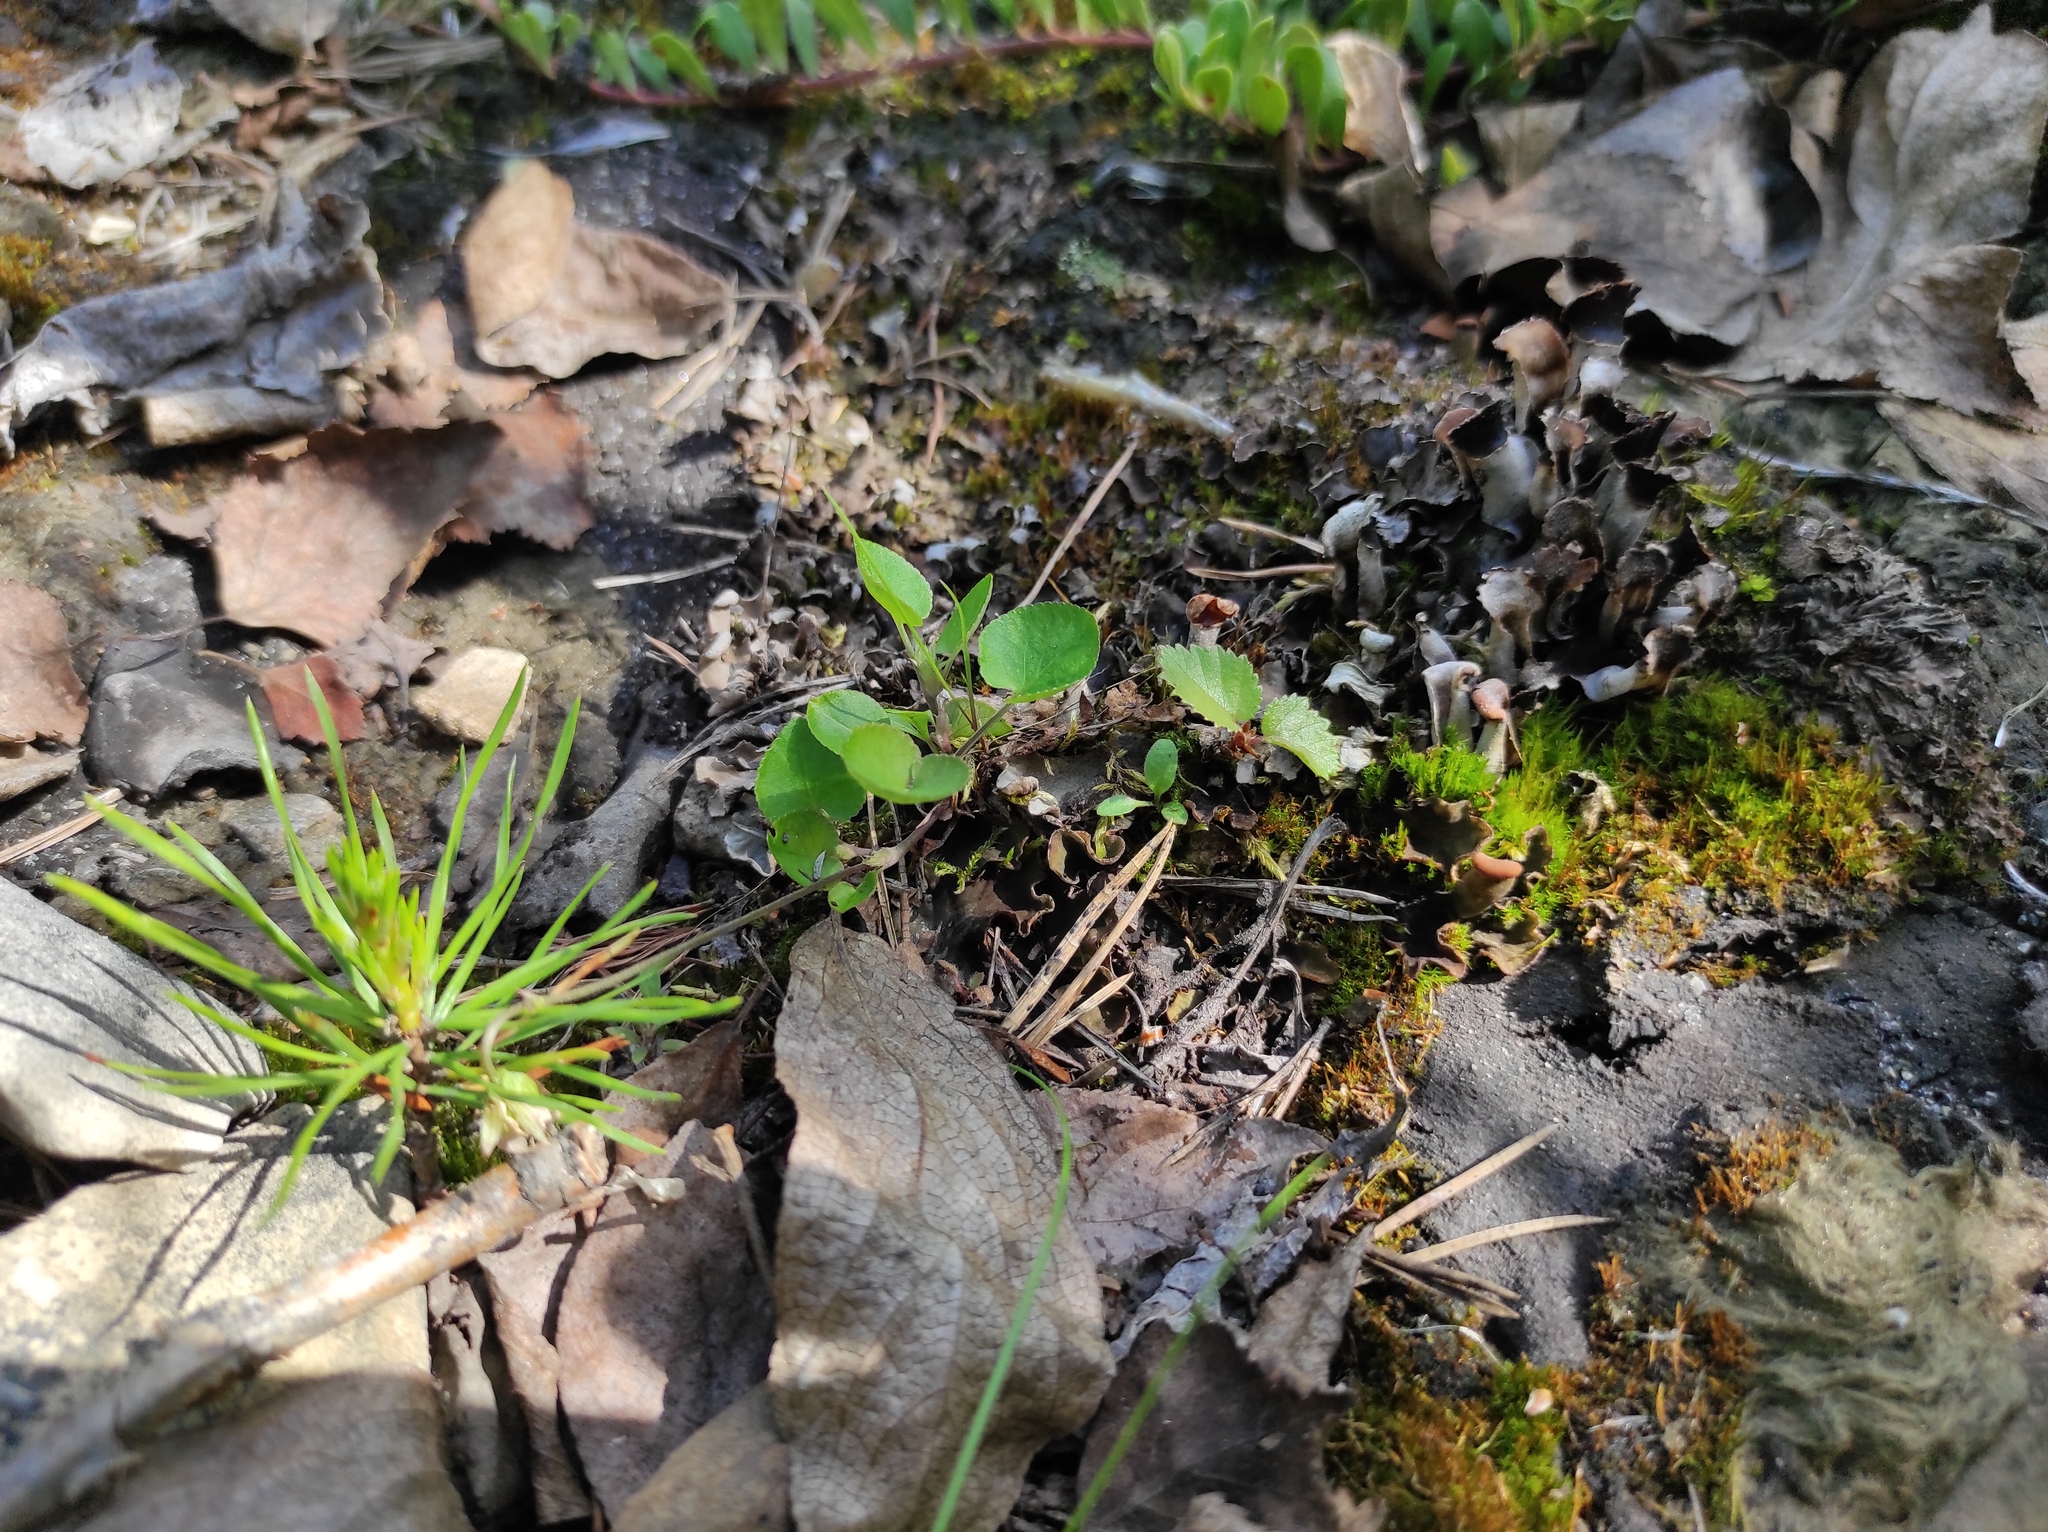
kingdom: Plantae
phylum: Tracheophyta
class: Pinopsida
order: Pinales
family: Pinaceae
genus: Pinus
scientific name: Pinus sylvestris
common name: Scots pine
